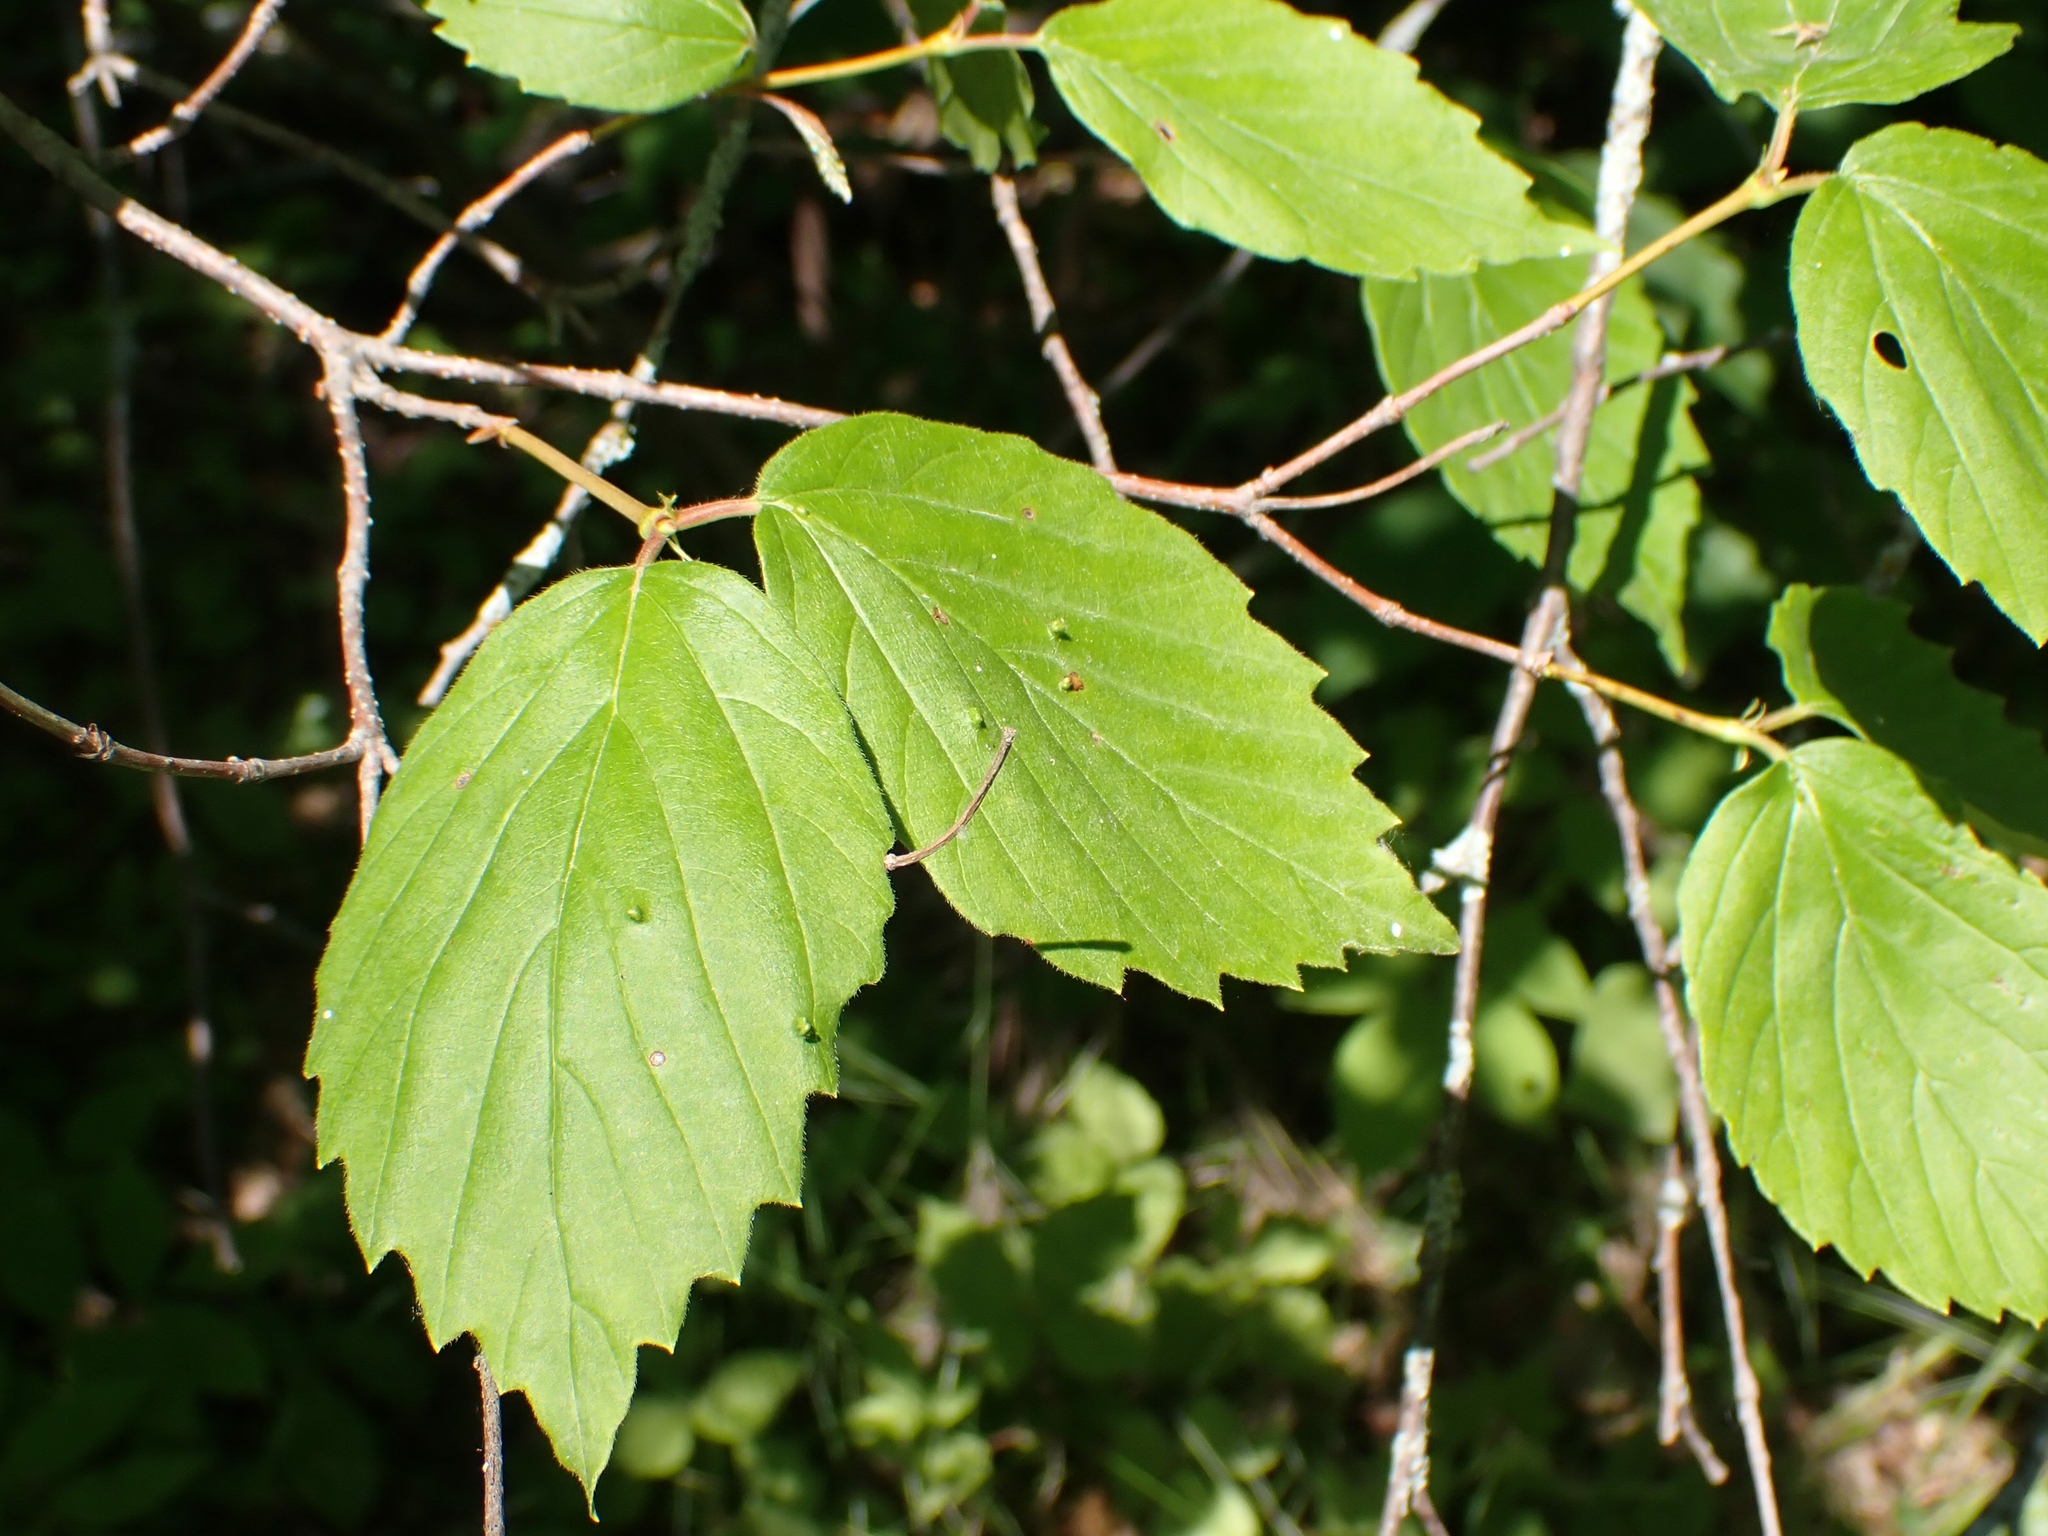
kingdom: Plantae
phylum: Tracheophyta
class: Magnoliopsida
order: Dipsacales
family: Viburnaceae
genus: Viburnum
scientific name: Viburnum rafinesqueanum
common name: Downy arrow-wood
